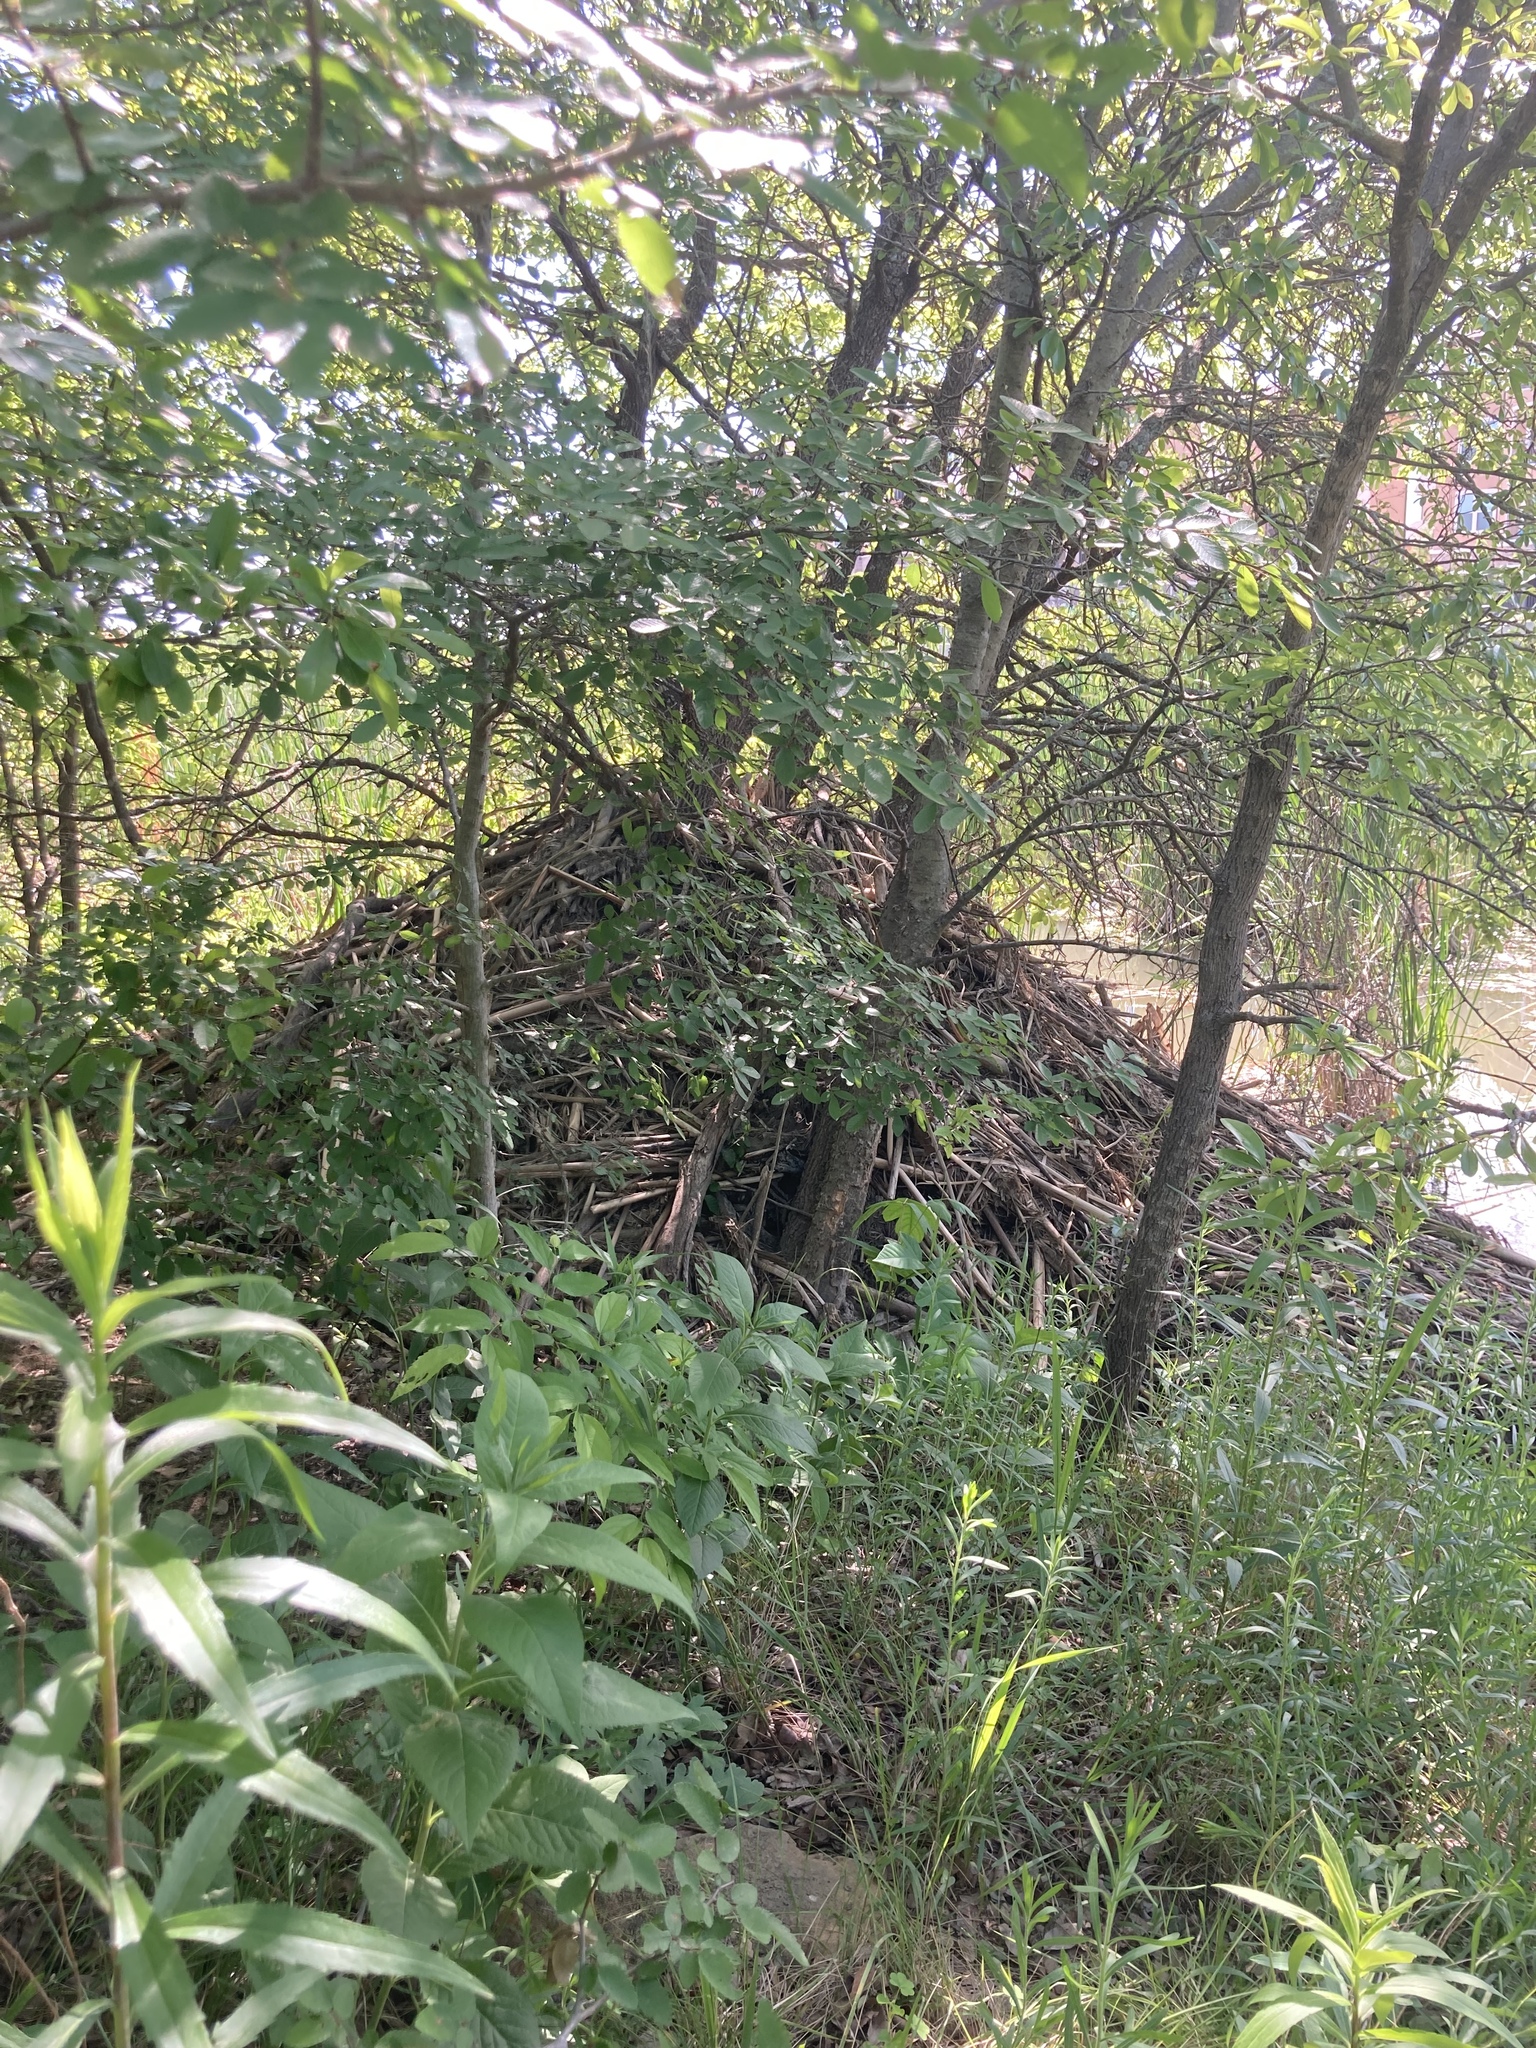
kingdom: Animalia
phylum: Chordata
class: Mammalia
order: Rodentia
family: Castoridae
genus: Castor
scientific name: Castor canadensis
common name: American beaver
